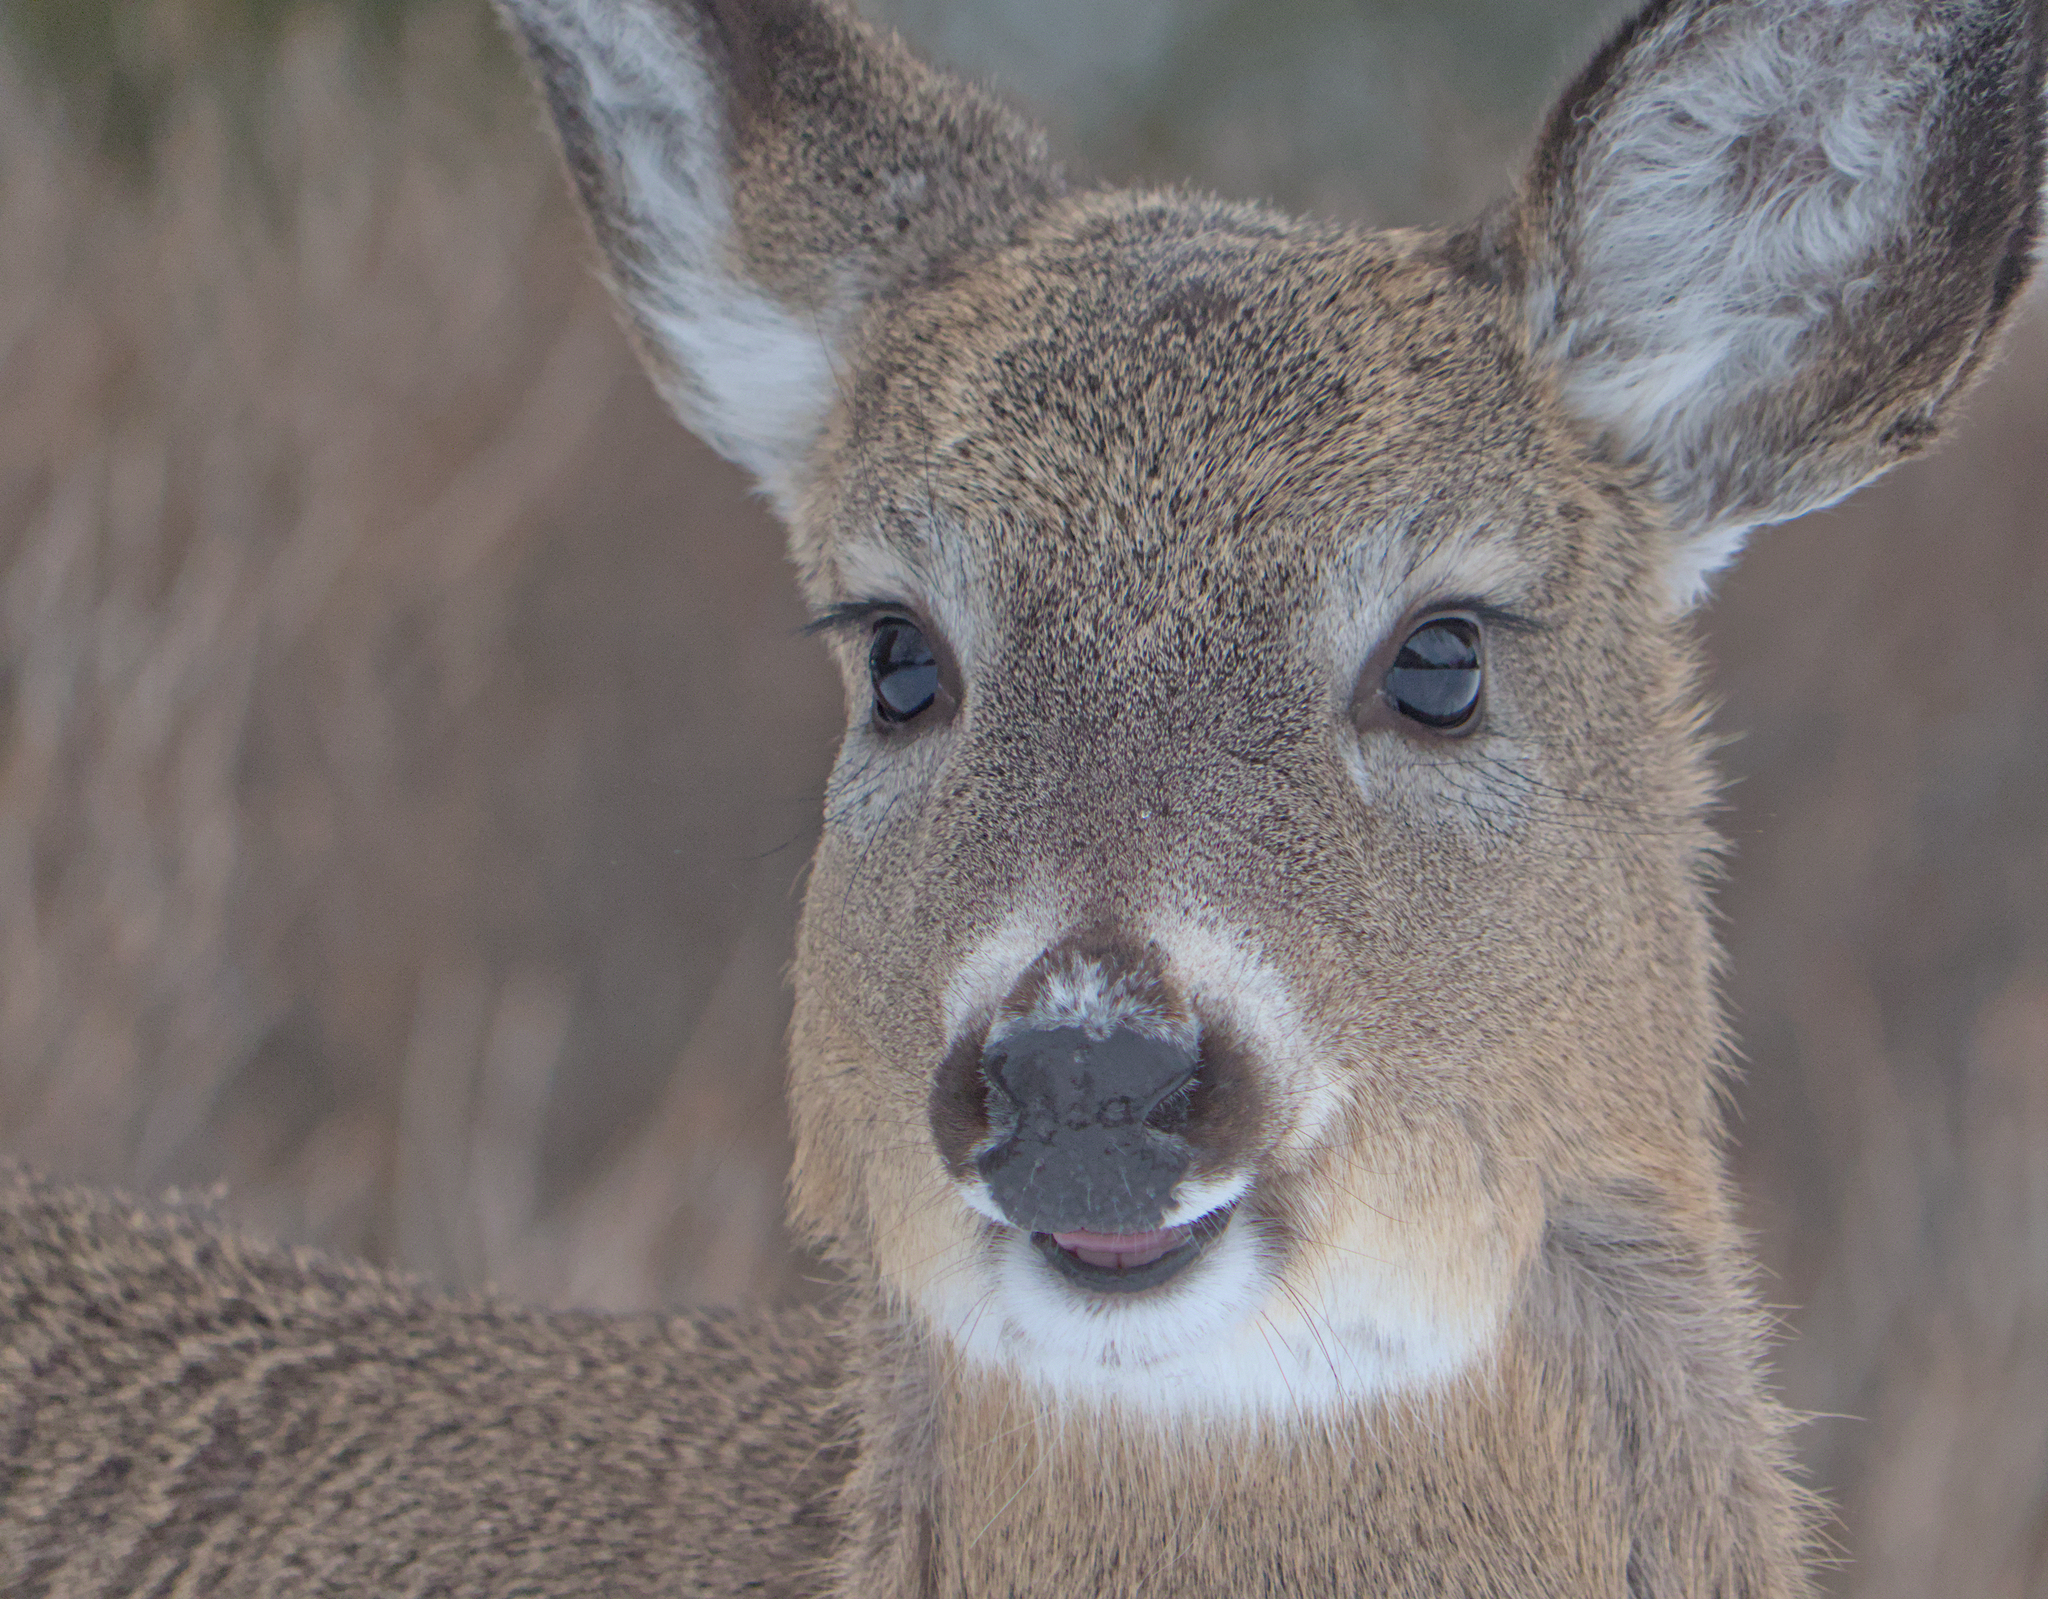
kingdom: Animalia
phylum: Chordata
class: Mammalia
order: Artiodactyla
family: Cervidae
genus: Odocoileus
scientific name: Odocoileus virginianus
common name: White-tailed deer
